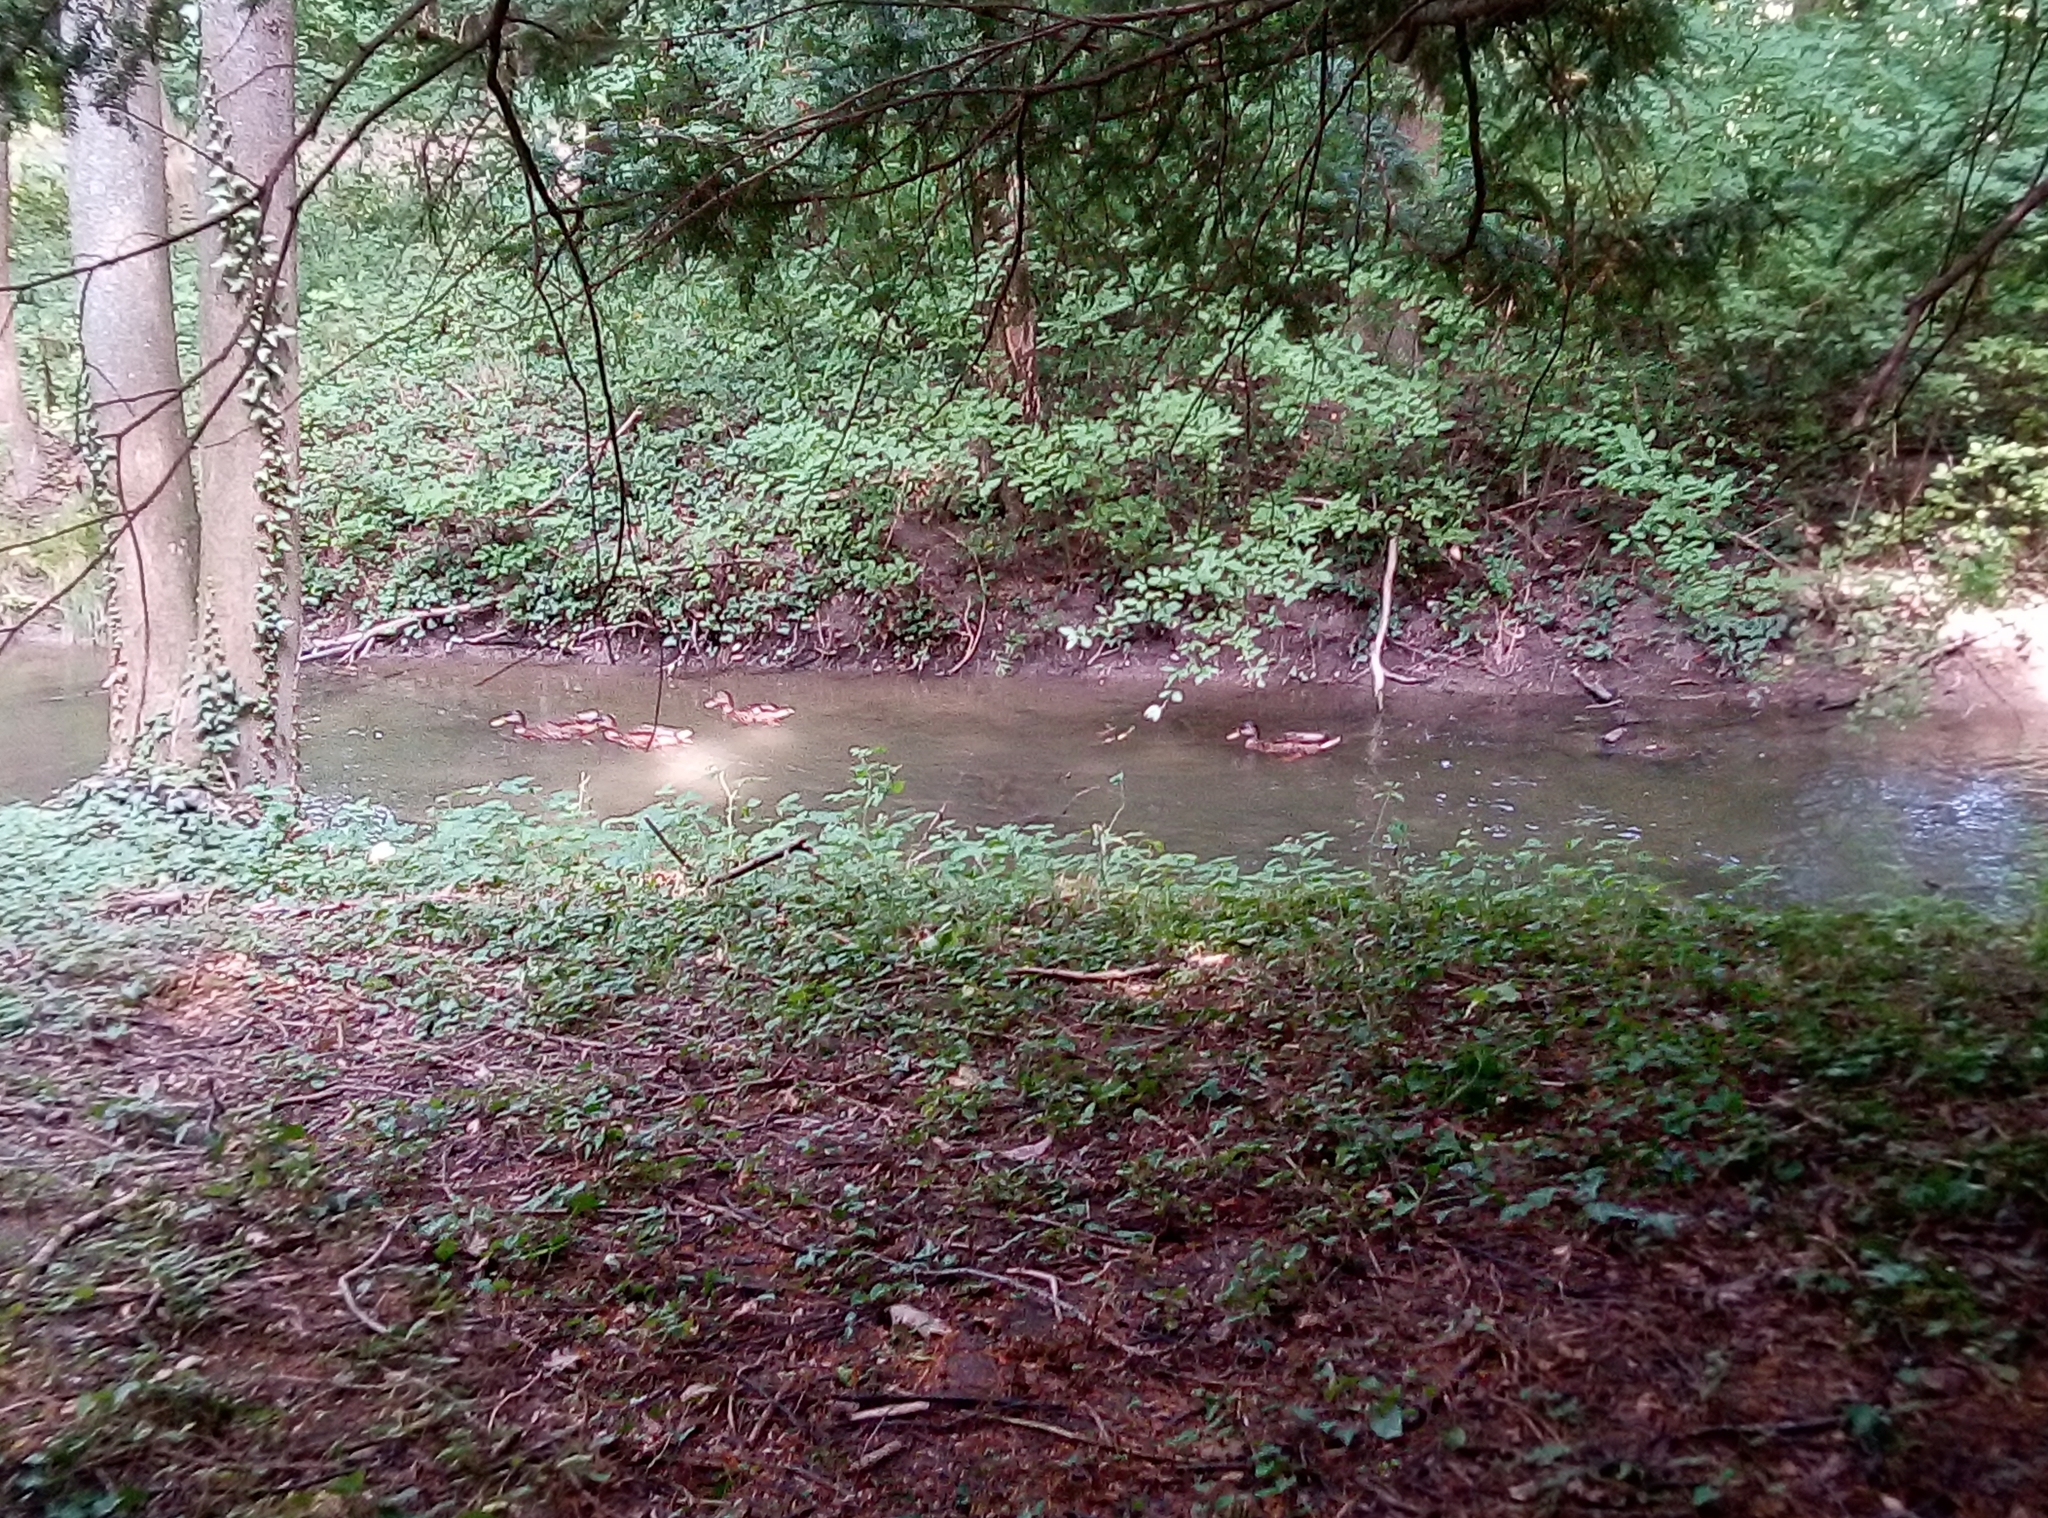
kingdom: Animalia
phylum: Chordata
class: Aves
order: Anseriformes
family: Anatidae
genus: Anas
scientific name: Anas platyrhynchos
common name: Mallard
